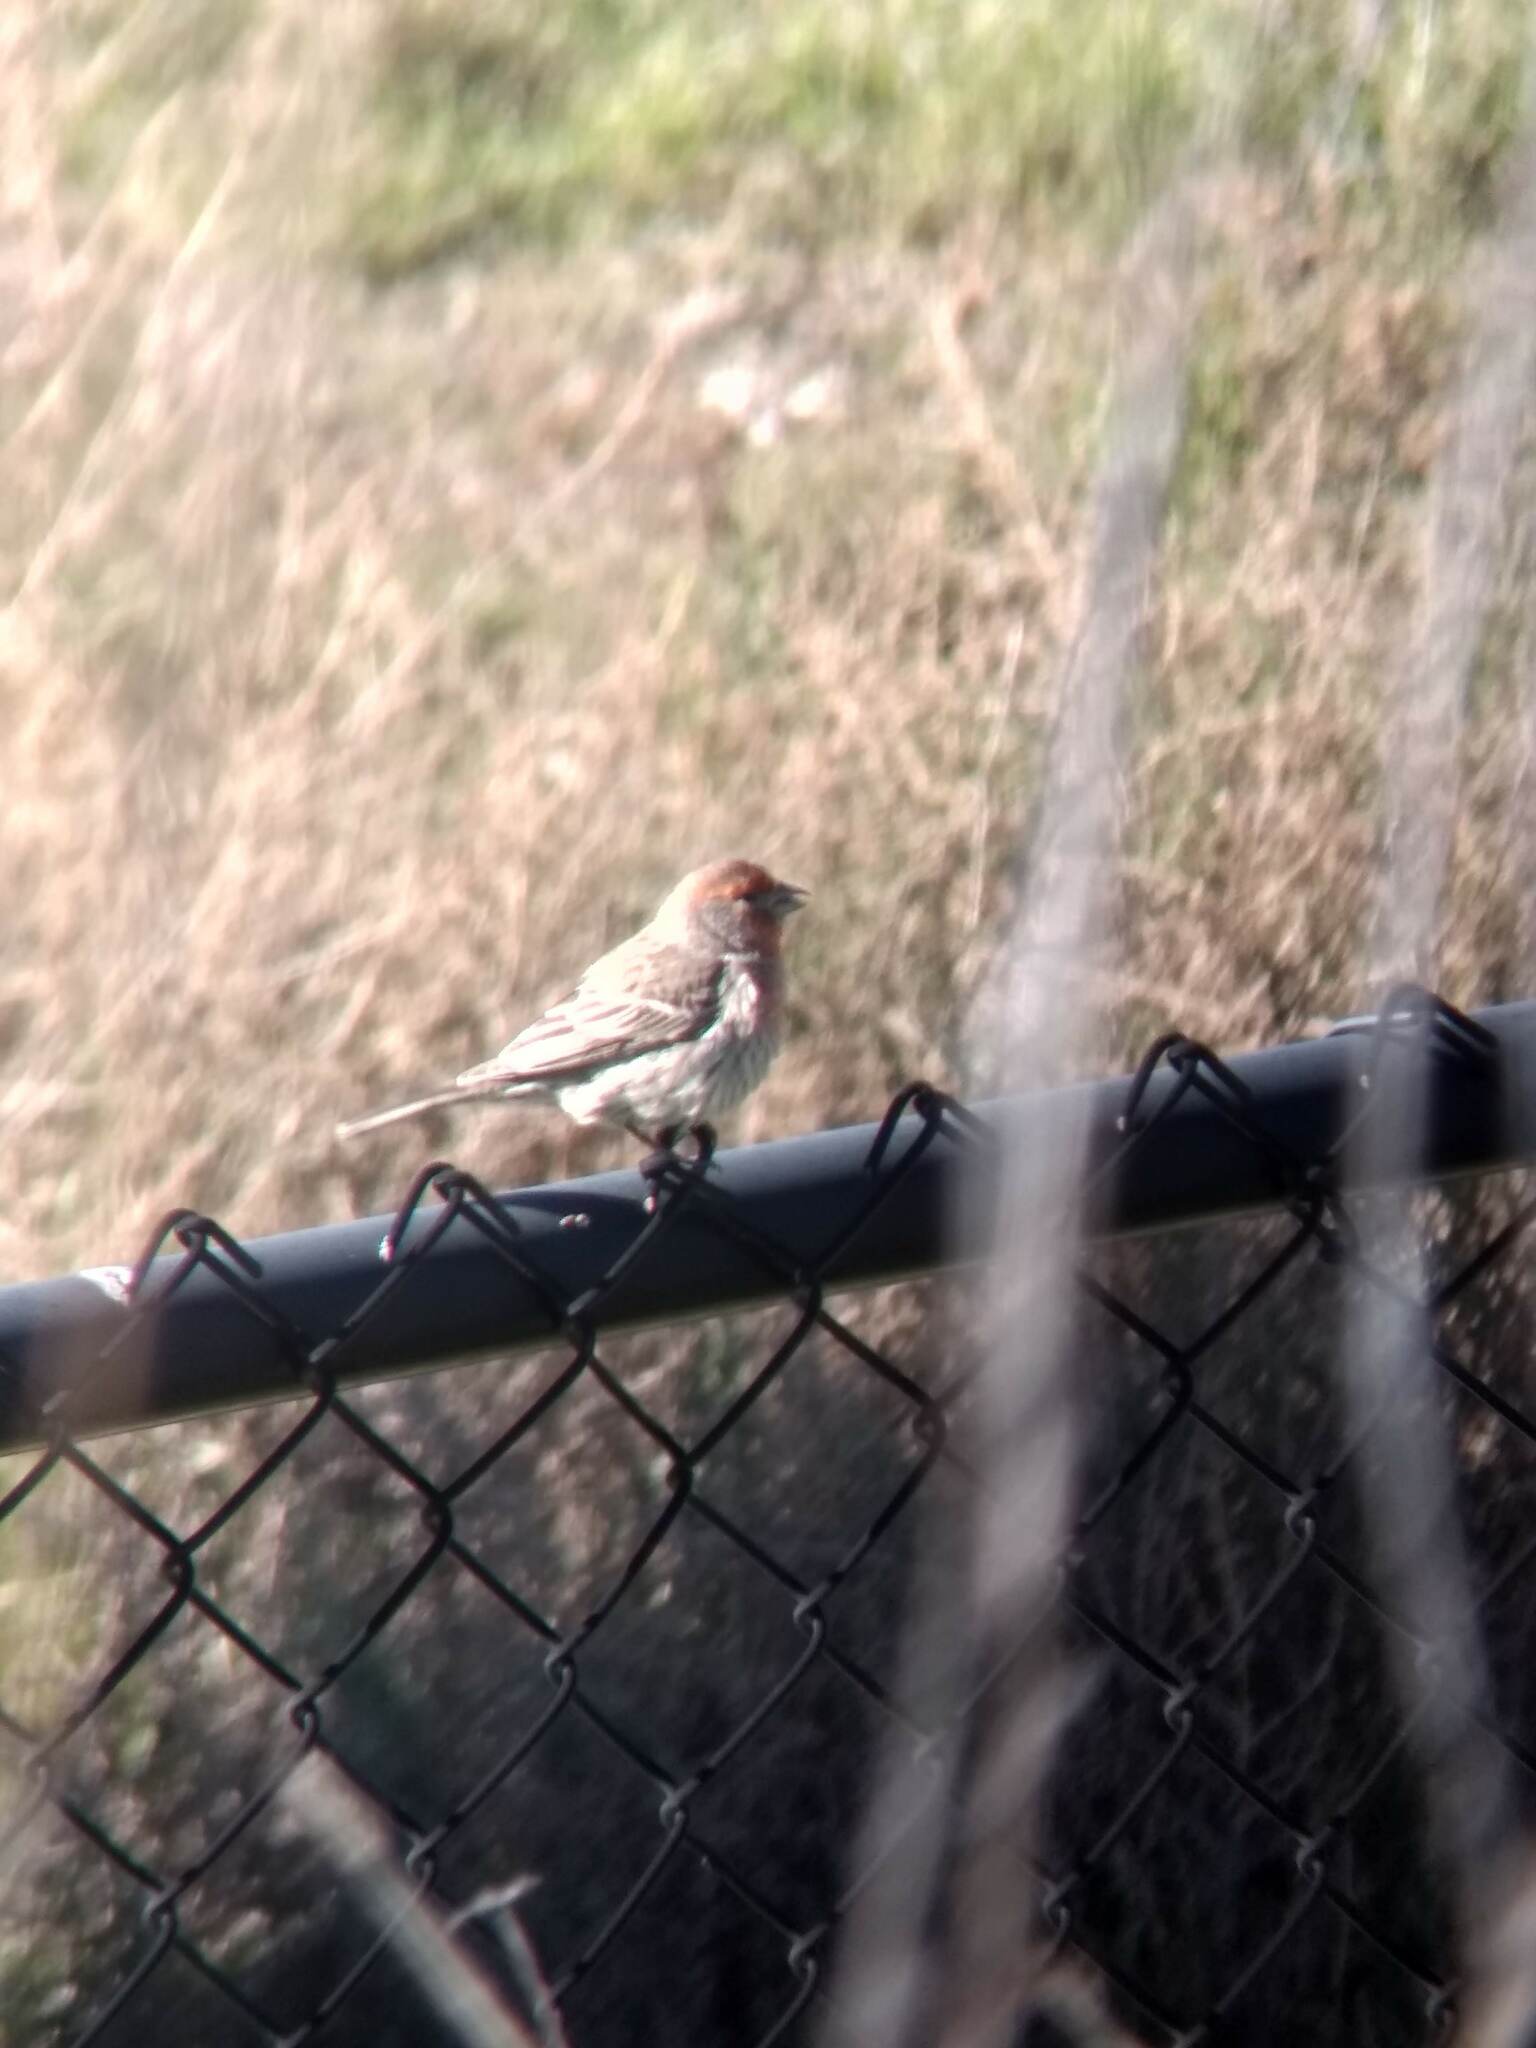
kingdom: Animalia
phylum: Chordata
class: Aves
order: Passeriformes
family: Fringillidae
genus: Haemorhous
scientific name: Haemorhous mexicanus
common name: House finch
